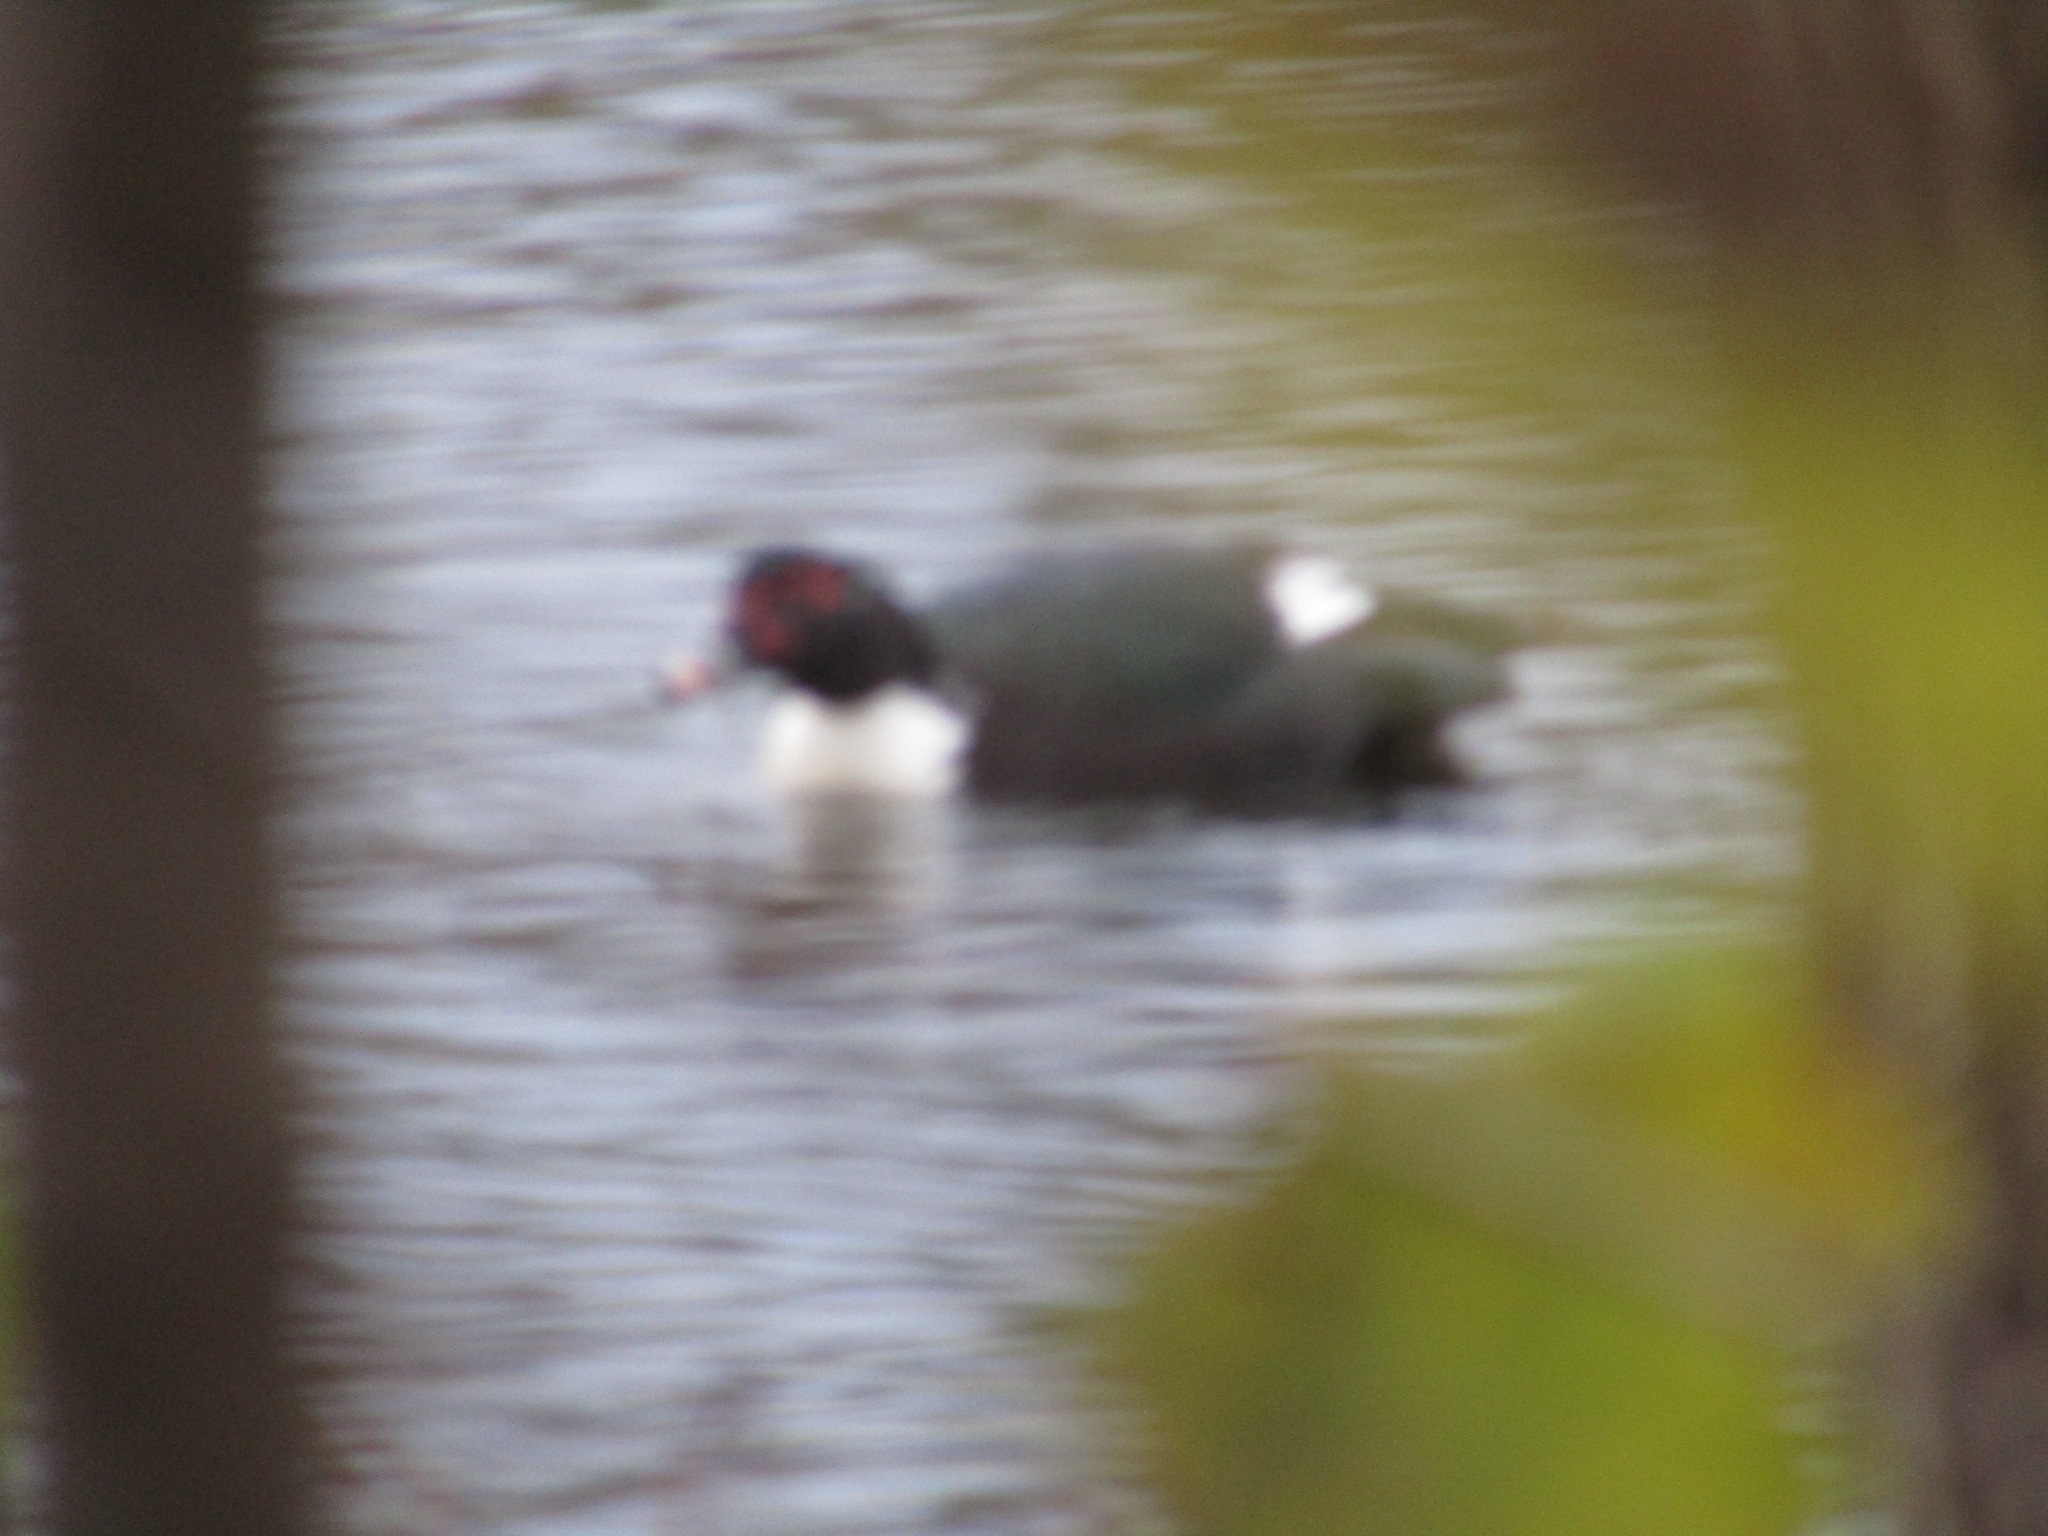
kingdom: Animalia
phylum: Chordata
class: Aves
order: Anseriformes
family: Anatidae
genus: Cairina
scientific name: Cairina moschata
